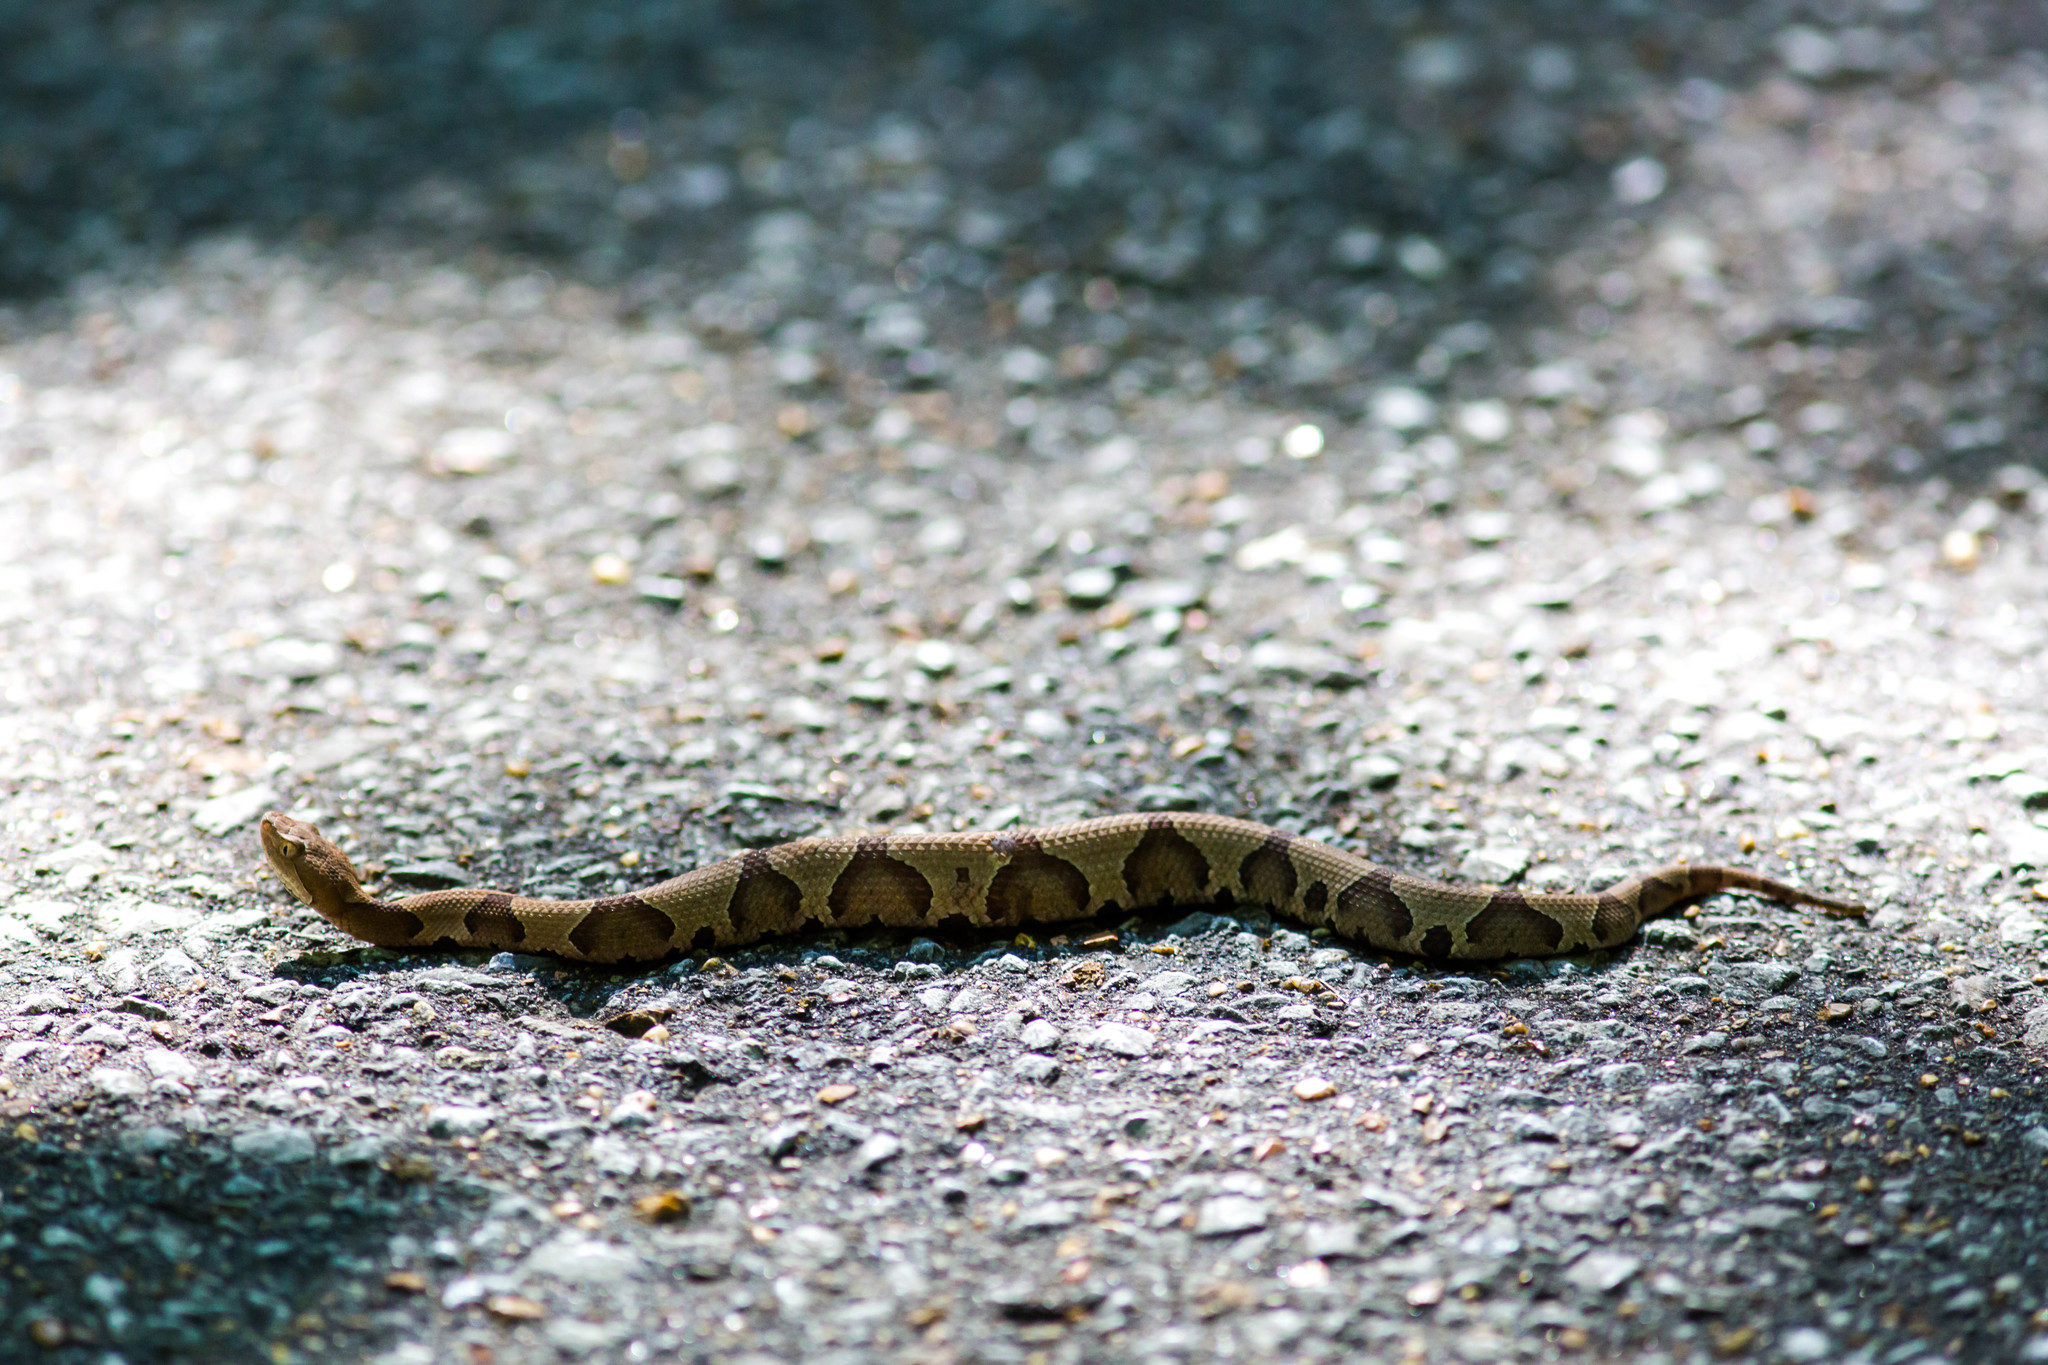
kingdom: Animalia
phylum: Chordata
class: Squamata
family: Viperidae
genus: Agkistrodon
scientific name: Agkistrodon contortrix
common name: Northern copperhead
